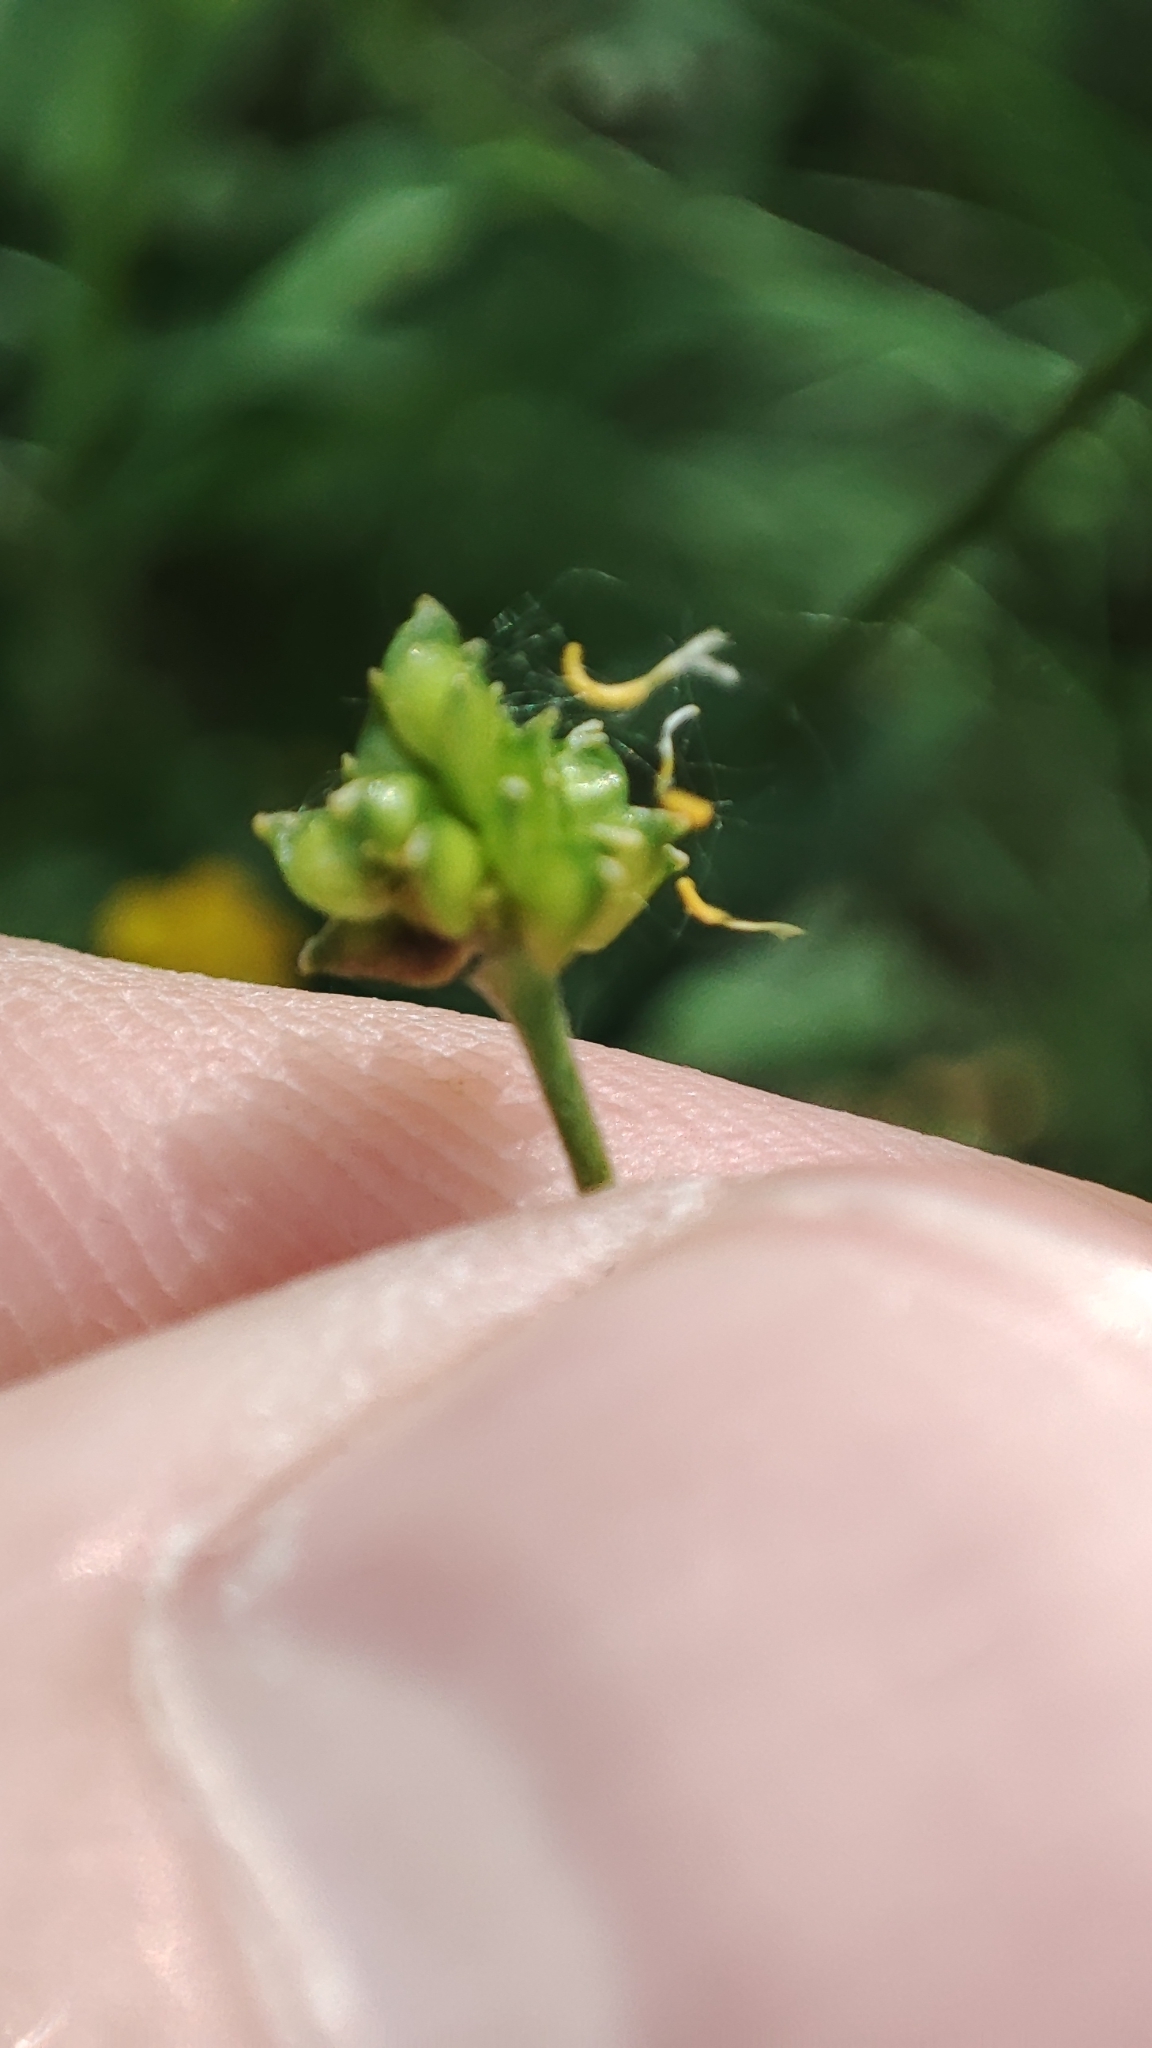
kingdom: Plantae
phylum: Tracheophyta
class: Magnoliopsida
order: Ranunculales
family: Ranunculaceae
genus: Ranunculus
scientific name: Ranunculus acris
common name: Meadow buttercup
